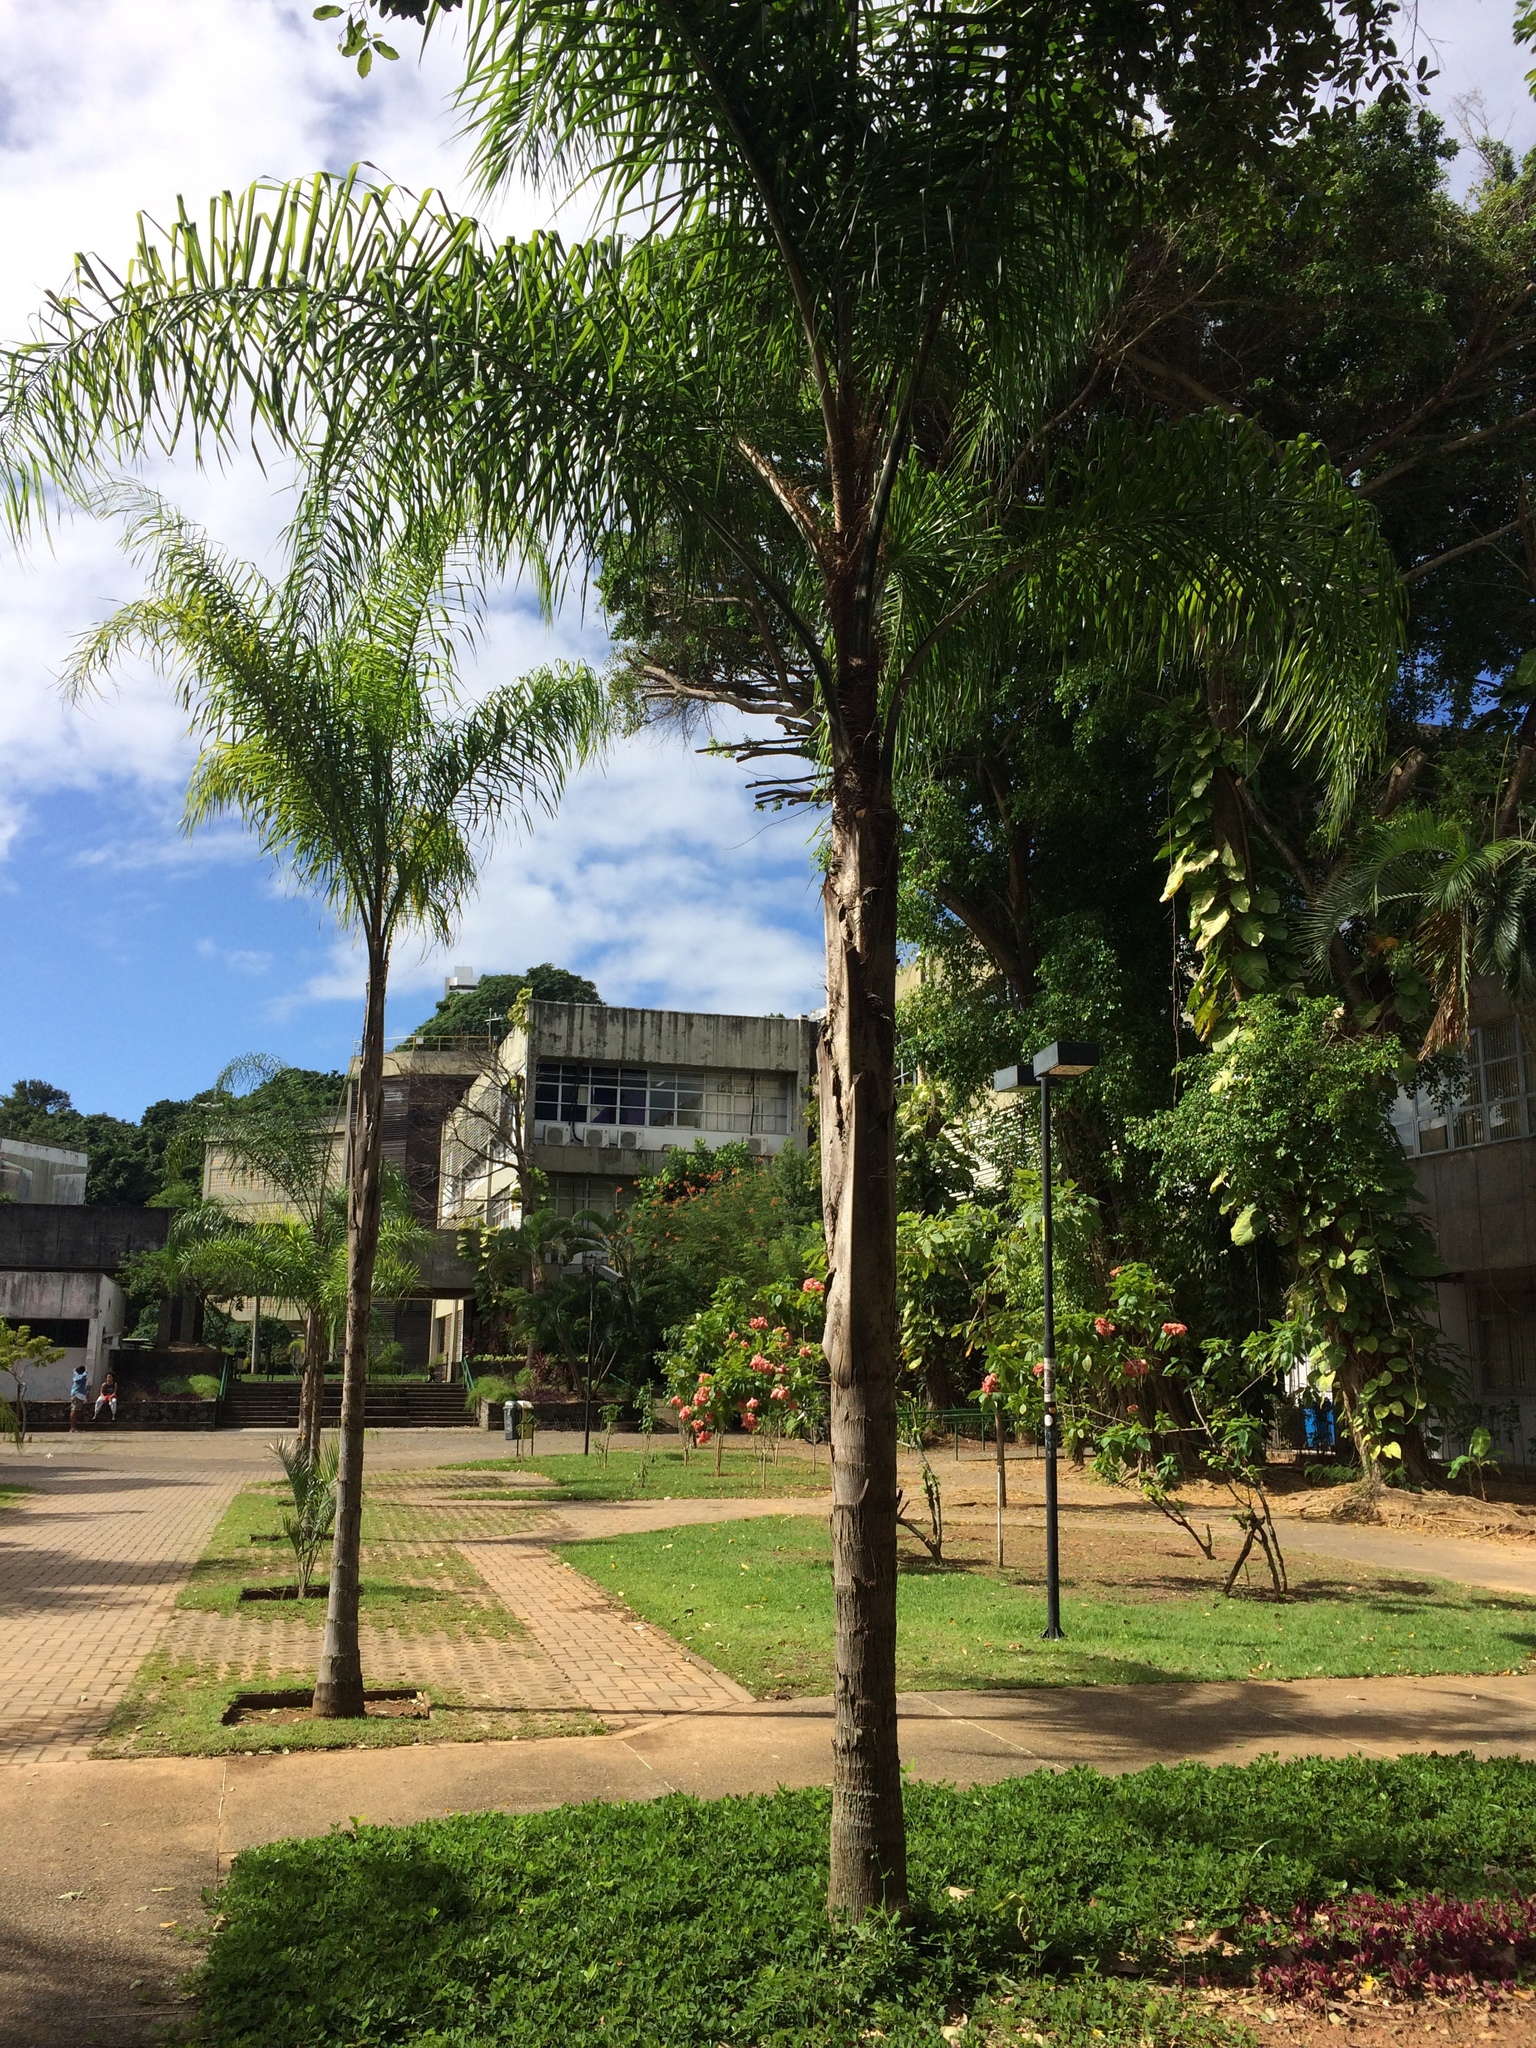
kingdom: Plantae
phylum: Tracheophyta
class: Liliopsida
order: Arecales
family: Arecaceae
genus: Syagrus
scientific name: Syagrus romanzoffiana
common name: Queen palm
